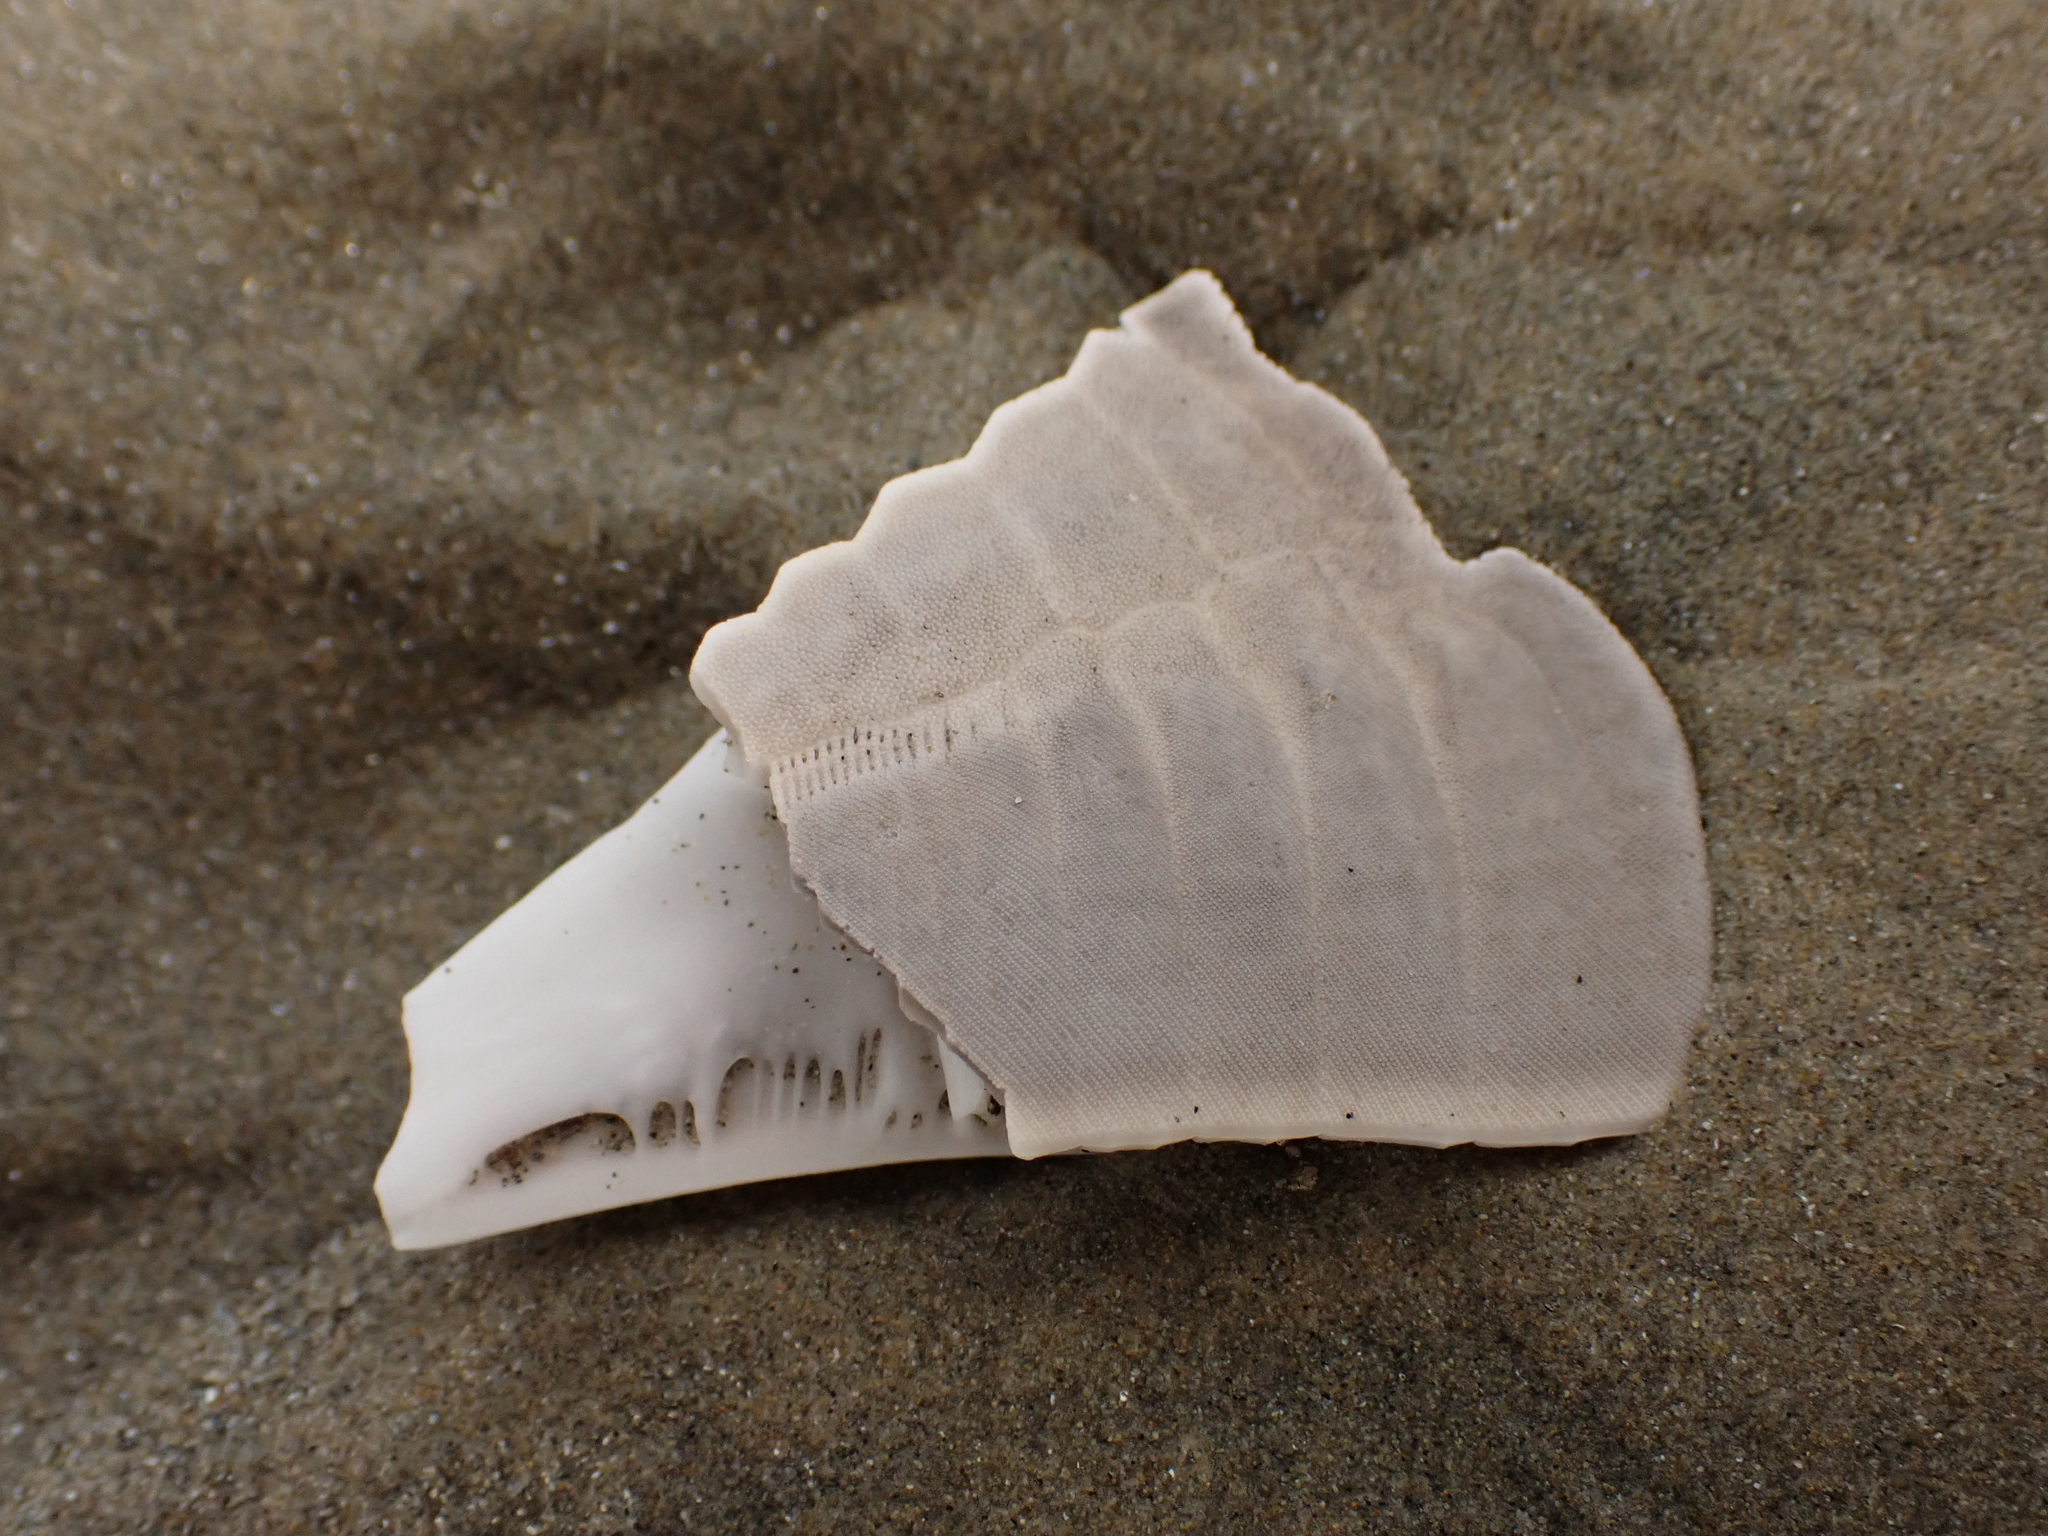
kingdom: Animalia
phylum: Echinodermata
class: Echinoidea
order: Clypeasteroida
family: Clypeasteridae
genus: Fellaster
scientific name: Fellaster zelandiae
